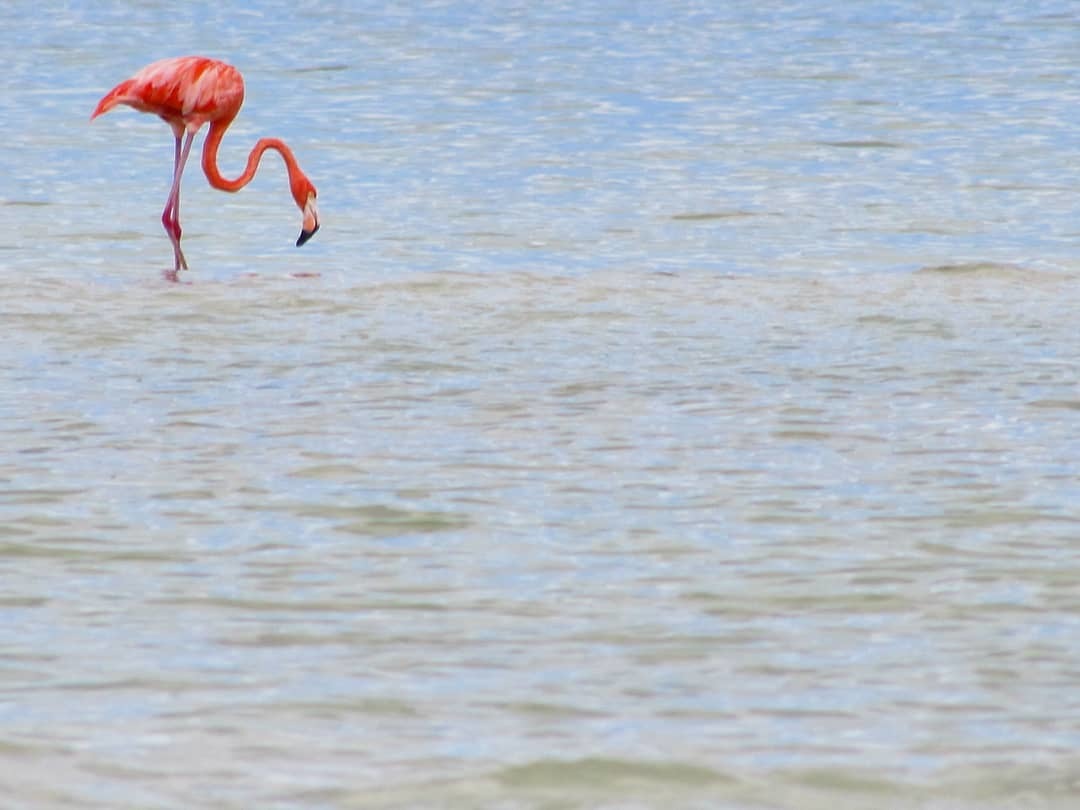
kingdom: Animalia
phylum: Chordata
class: Aves
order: Phoenicopteriformes
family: Phoenicopteridae
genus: Phoenicopterus
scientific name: Phoenicopterus ruber
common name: American flamingo
